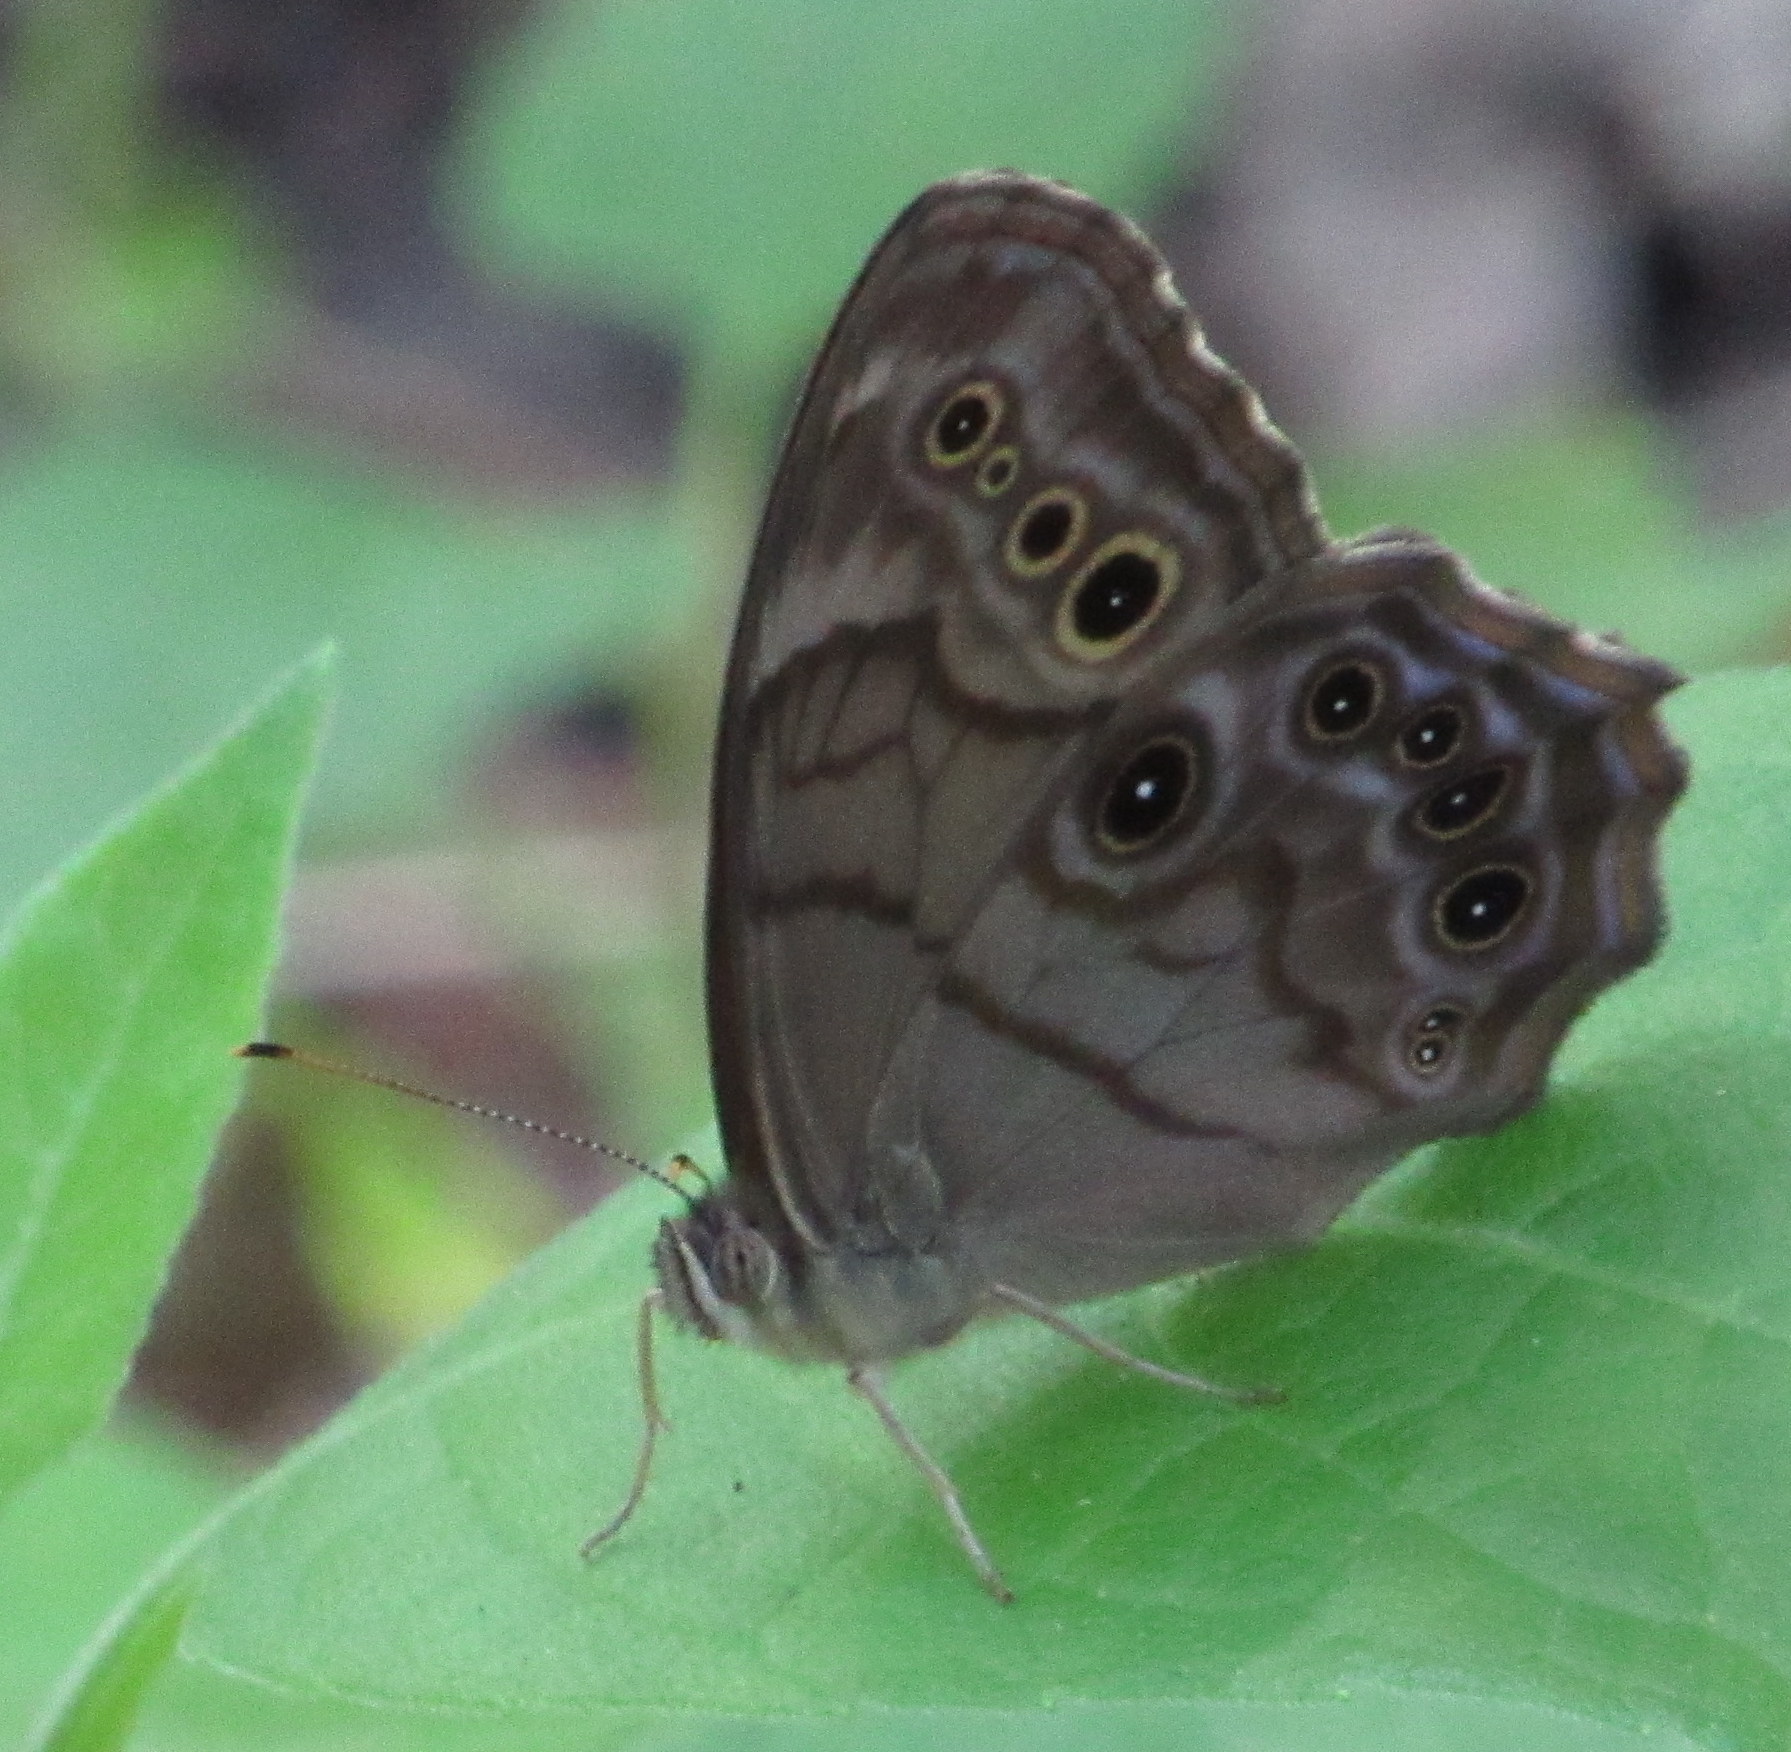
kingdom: Animalia
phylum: Arthropoda
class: Insecta
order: Lepidoptera
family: Nymphalidae
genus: Lethe
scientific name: Lethe anthedon
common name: Northern pearly-eye
